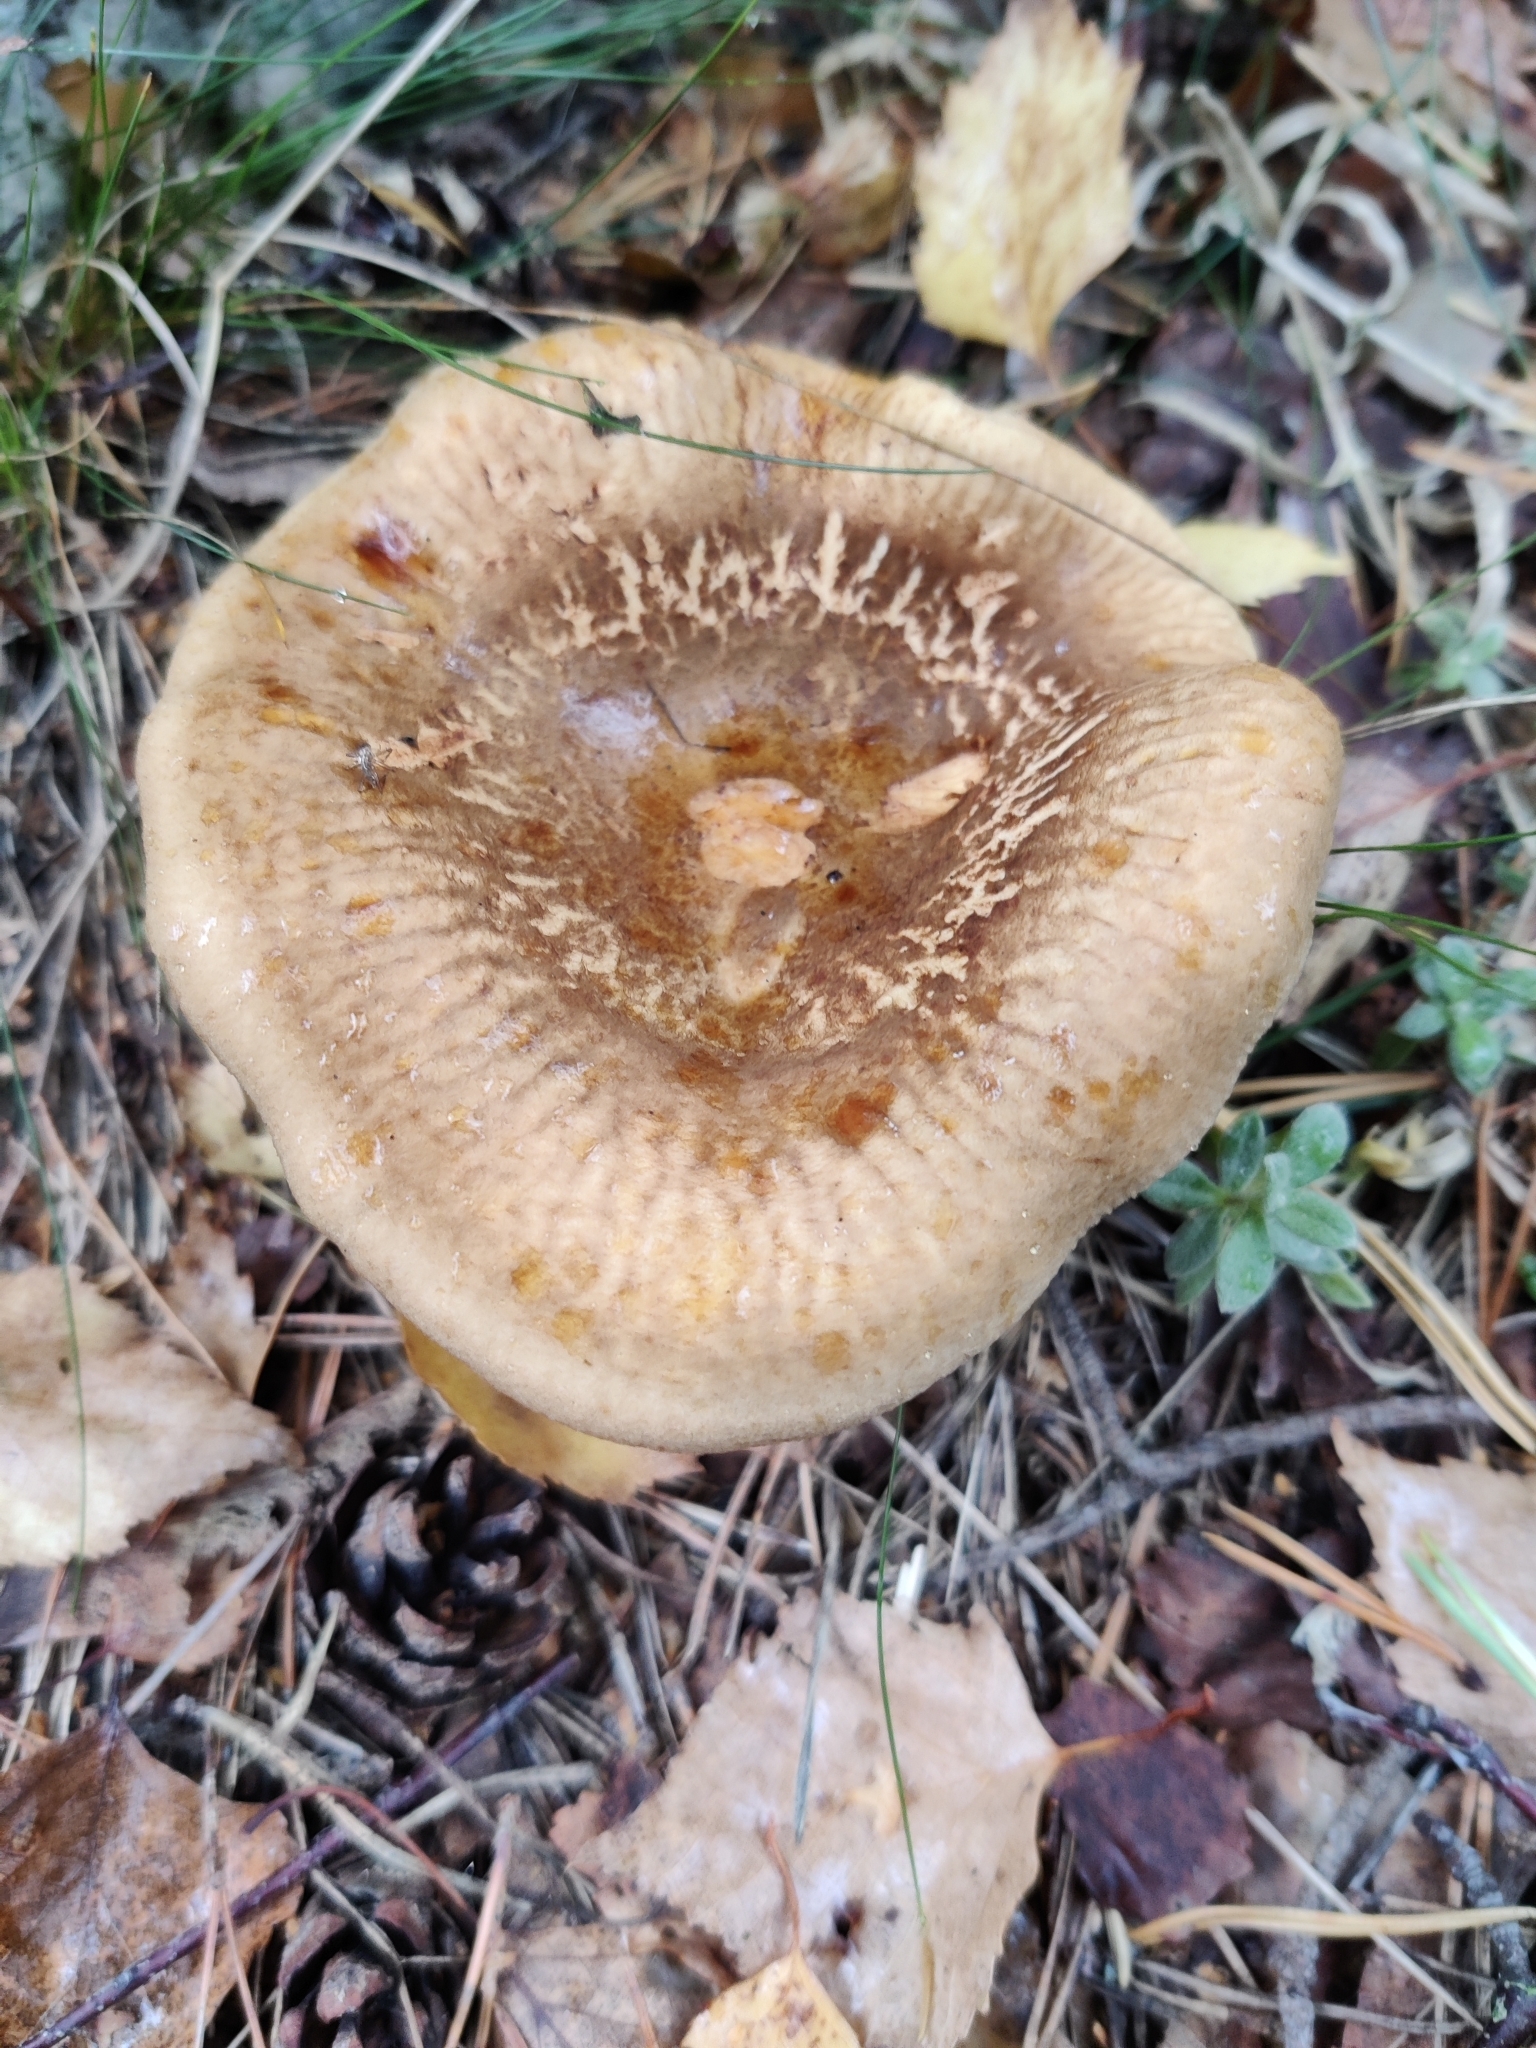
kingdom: Fungi
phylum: Basidiomycota
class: Agaricomycetes
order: Boletales
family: Paxillaceae
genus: Paxillus
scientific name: Paxillus involutus
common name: Brown roll rim
